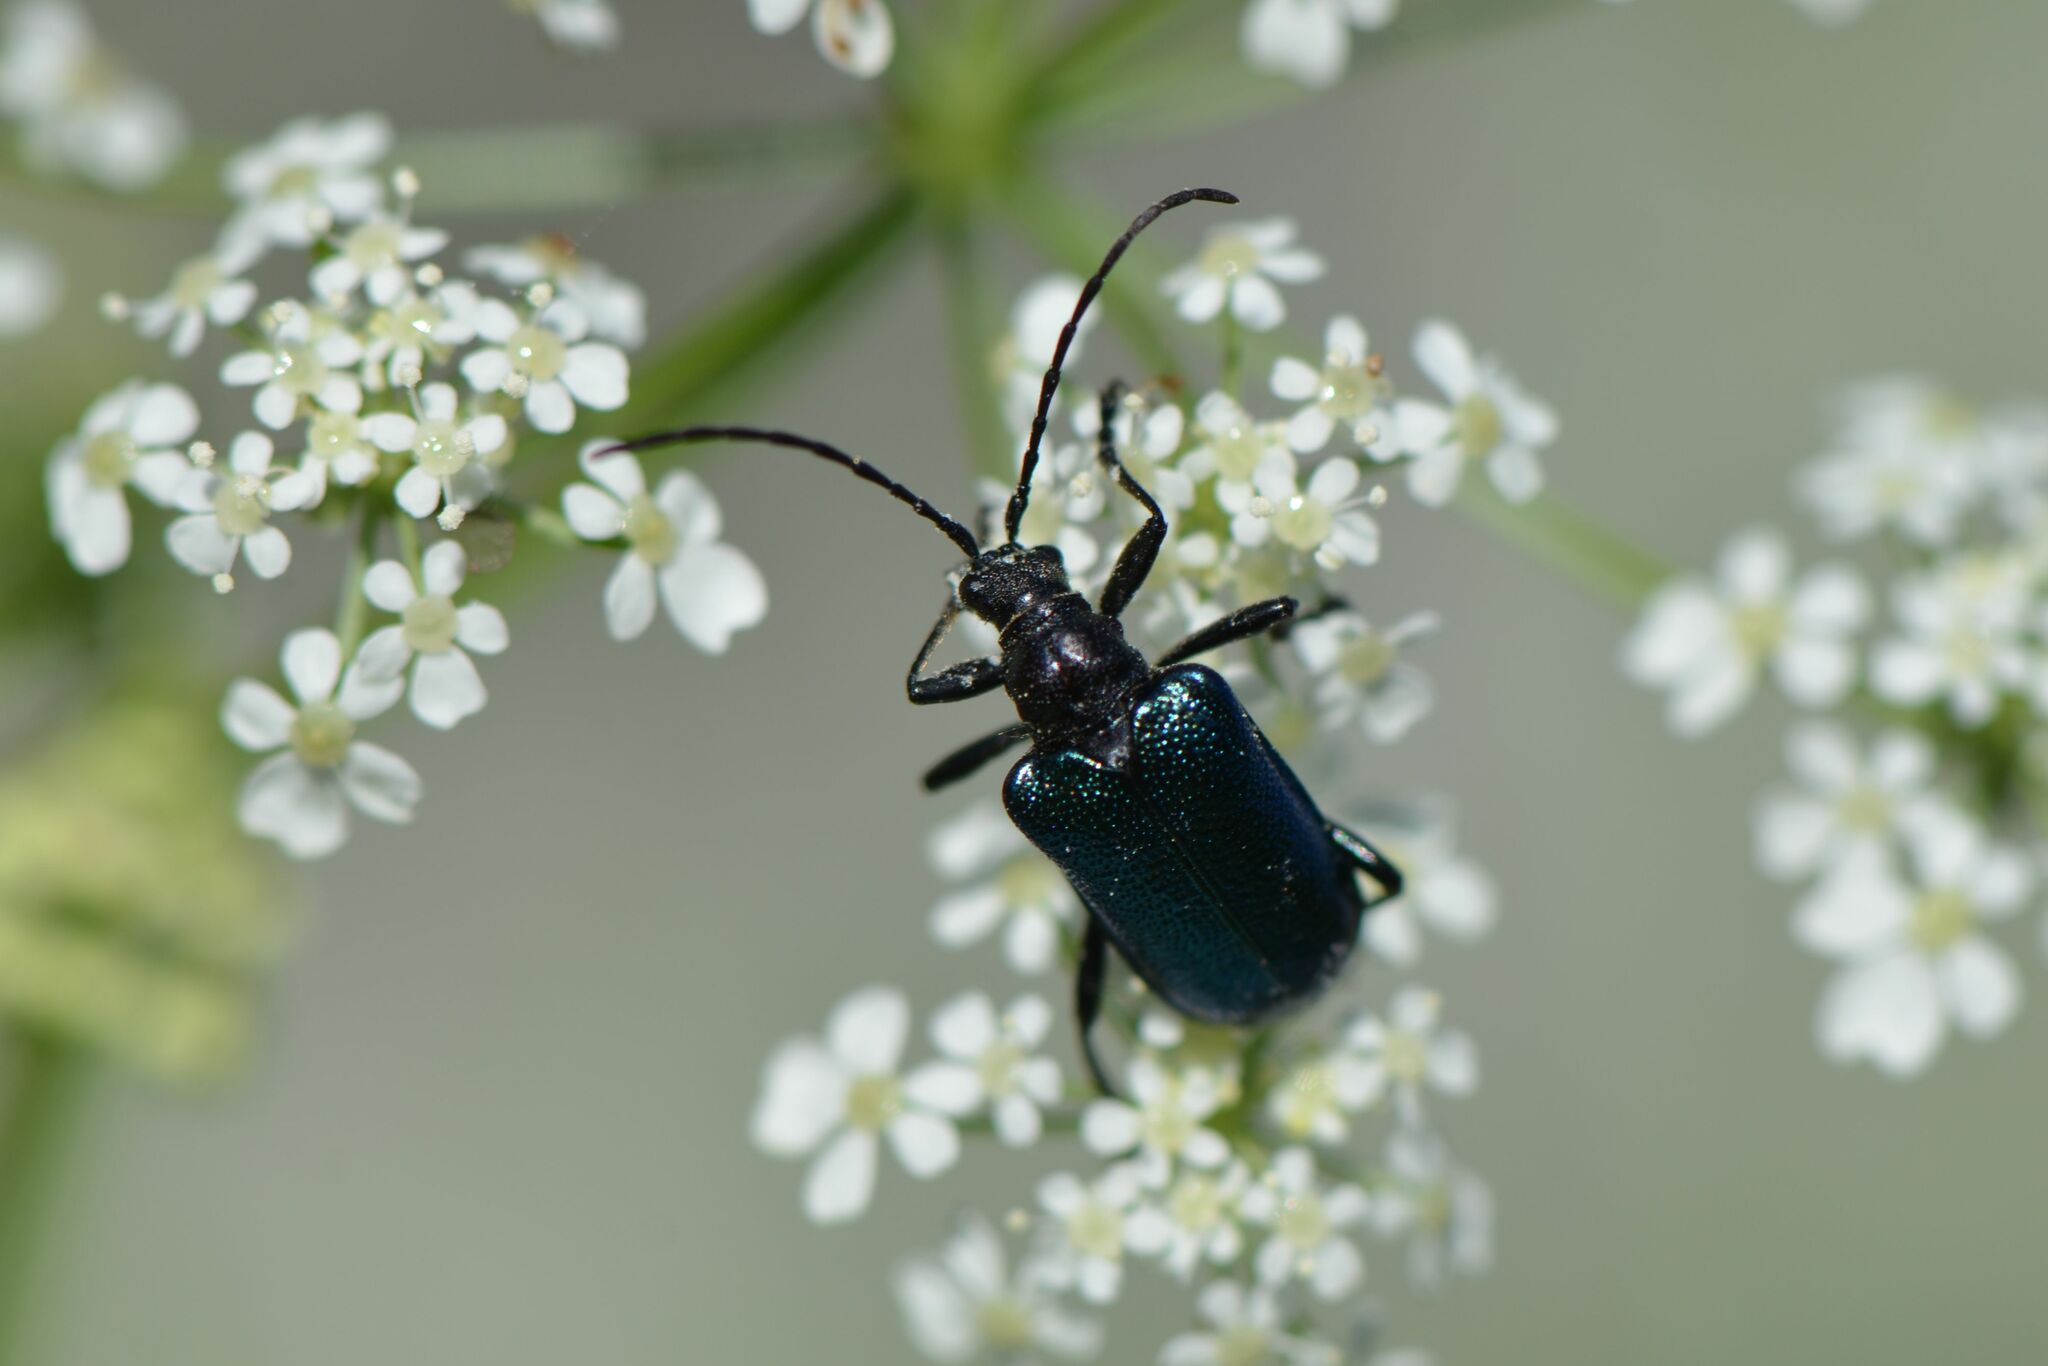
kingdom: Animalia
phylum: Arthropoda
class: Insecta
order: Coleoptera
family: Cerambycidae
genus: Gaurotes
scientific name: Gaurotes virginea
